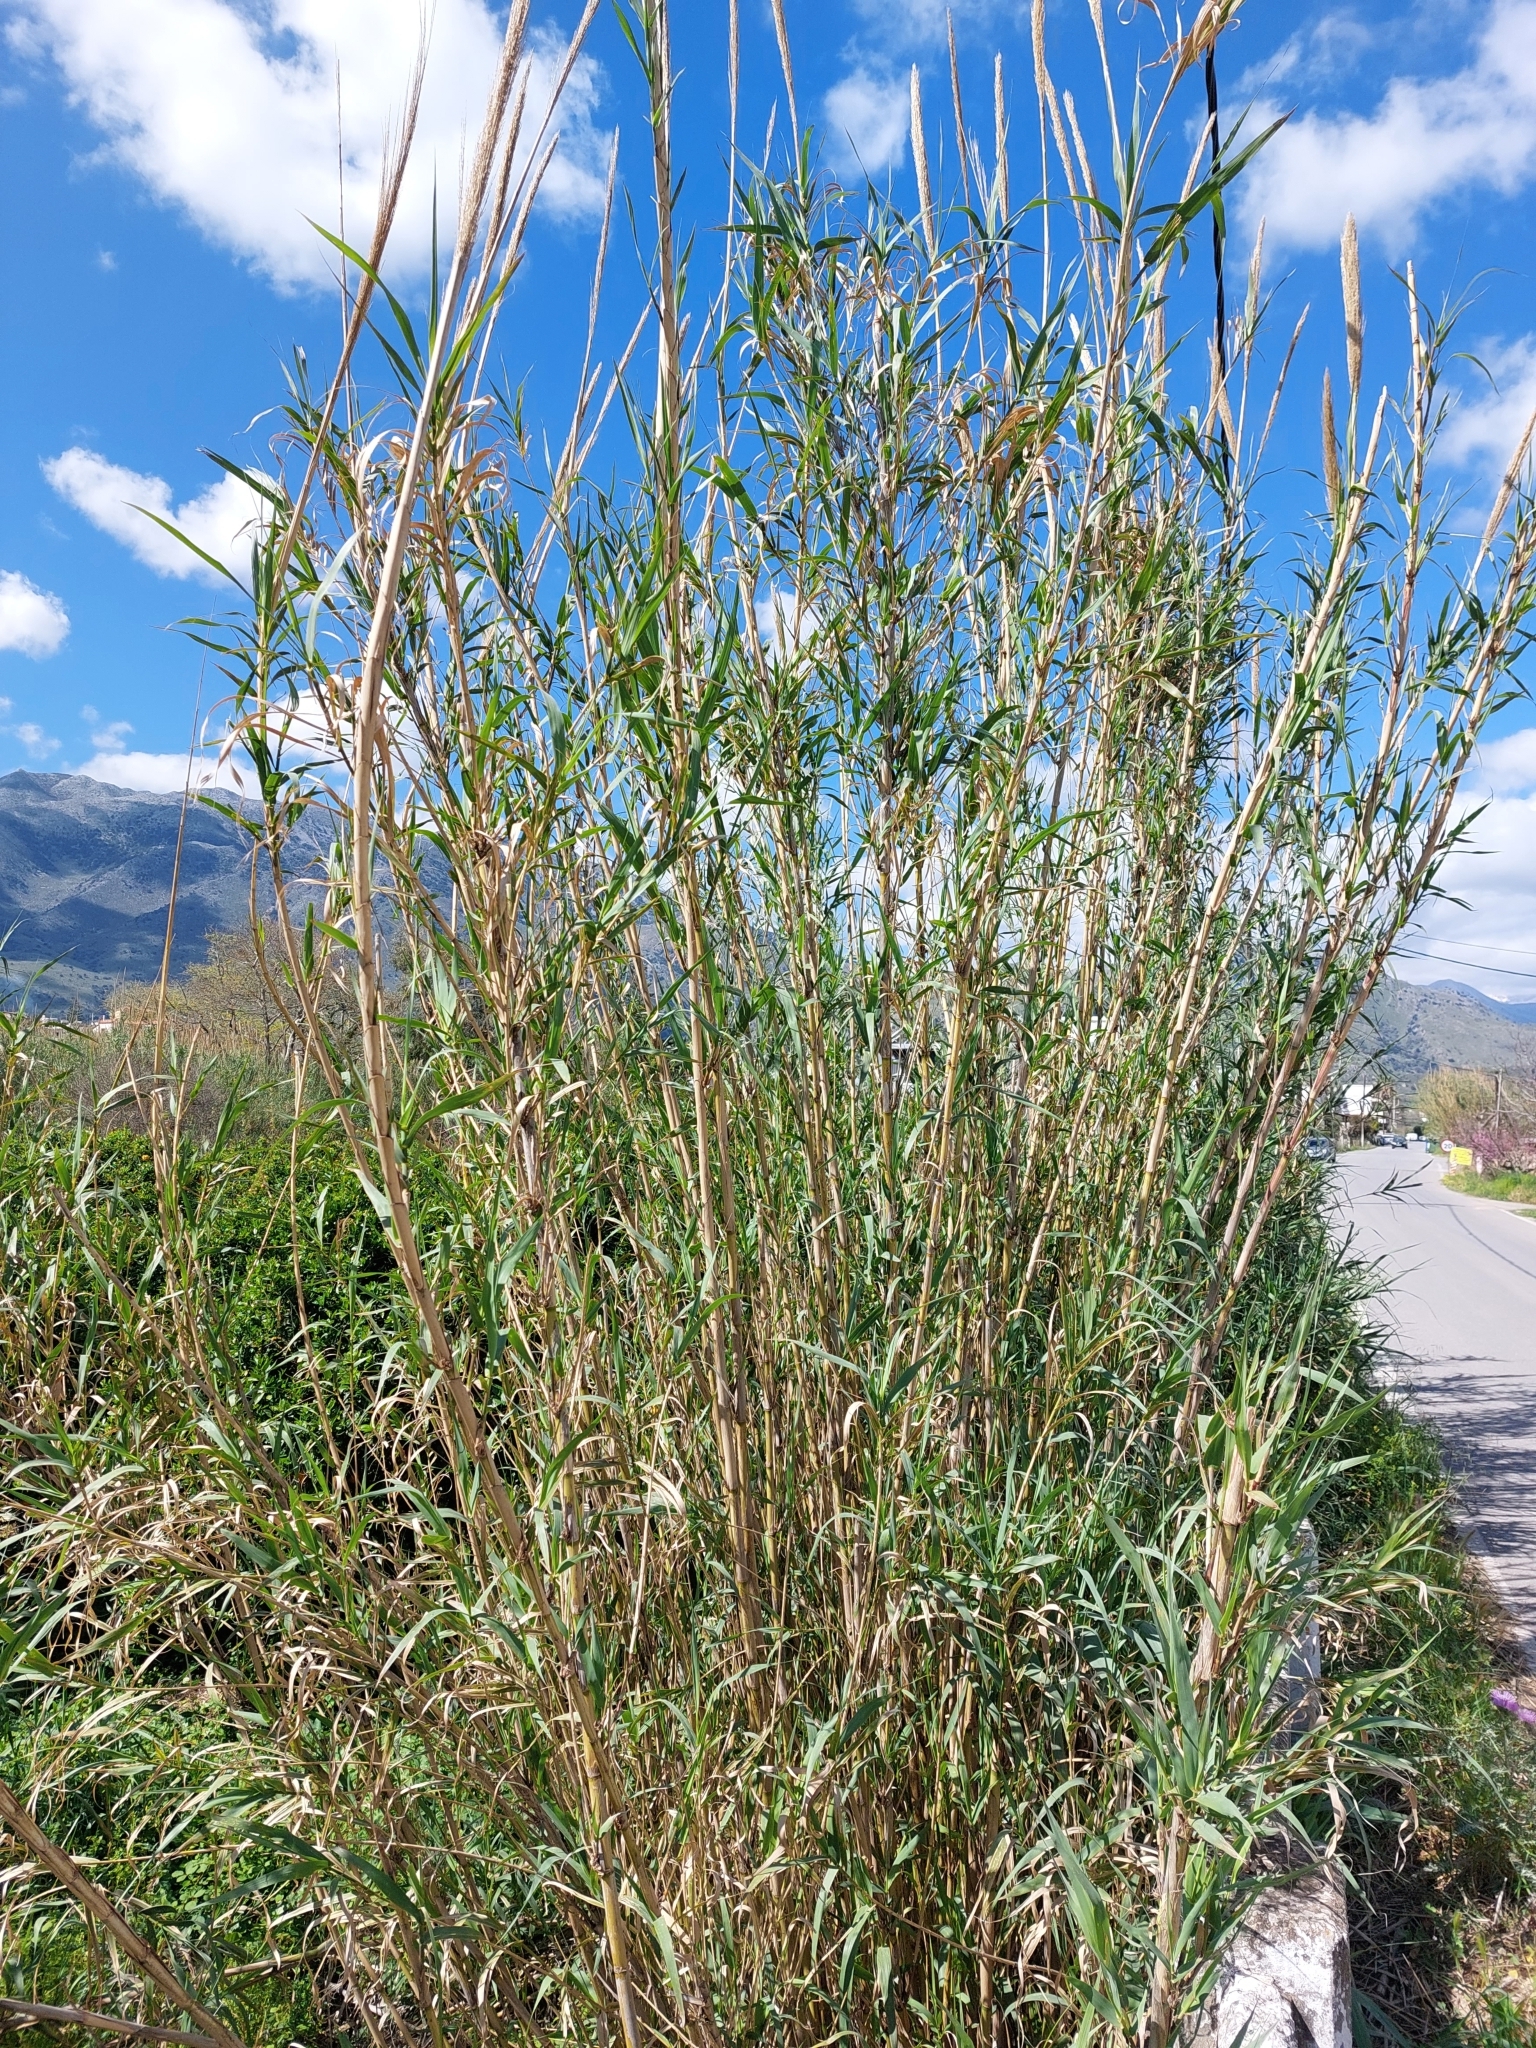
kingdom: Plantae
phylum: Tracheophyta
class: Liliopsida
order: Poales
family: Poaceae
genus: Arundo
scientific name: Arundo donax
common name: Giant reed
